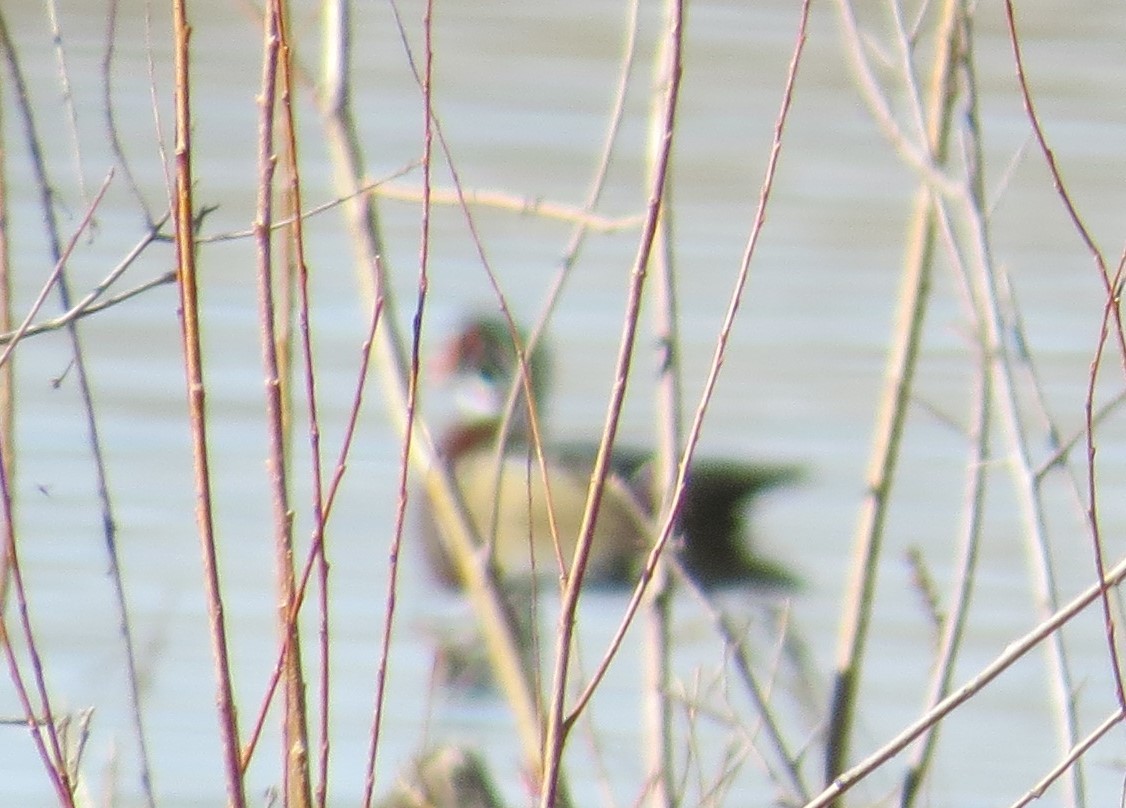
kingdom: Animalia
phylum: Chordata
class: Aves
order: Anseriformes
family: Anatidae
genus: Aix
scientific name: Aix sponsa
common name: Wood duck
